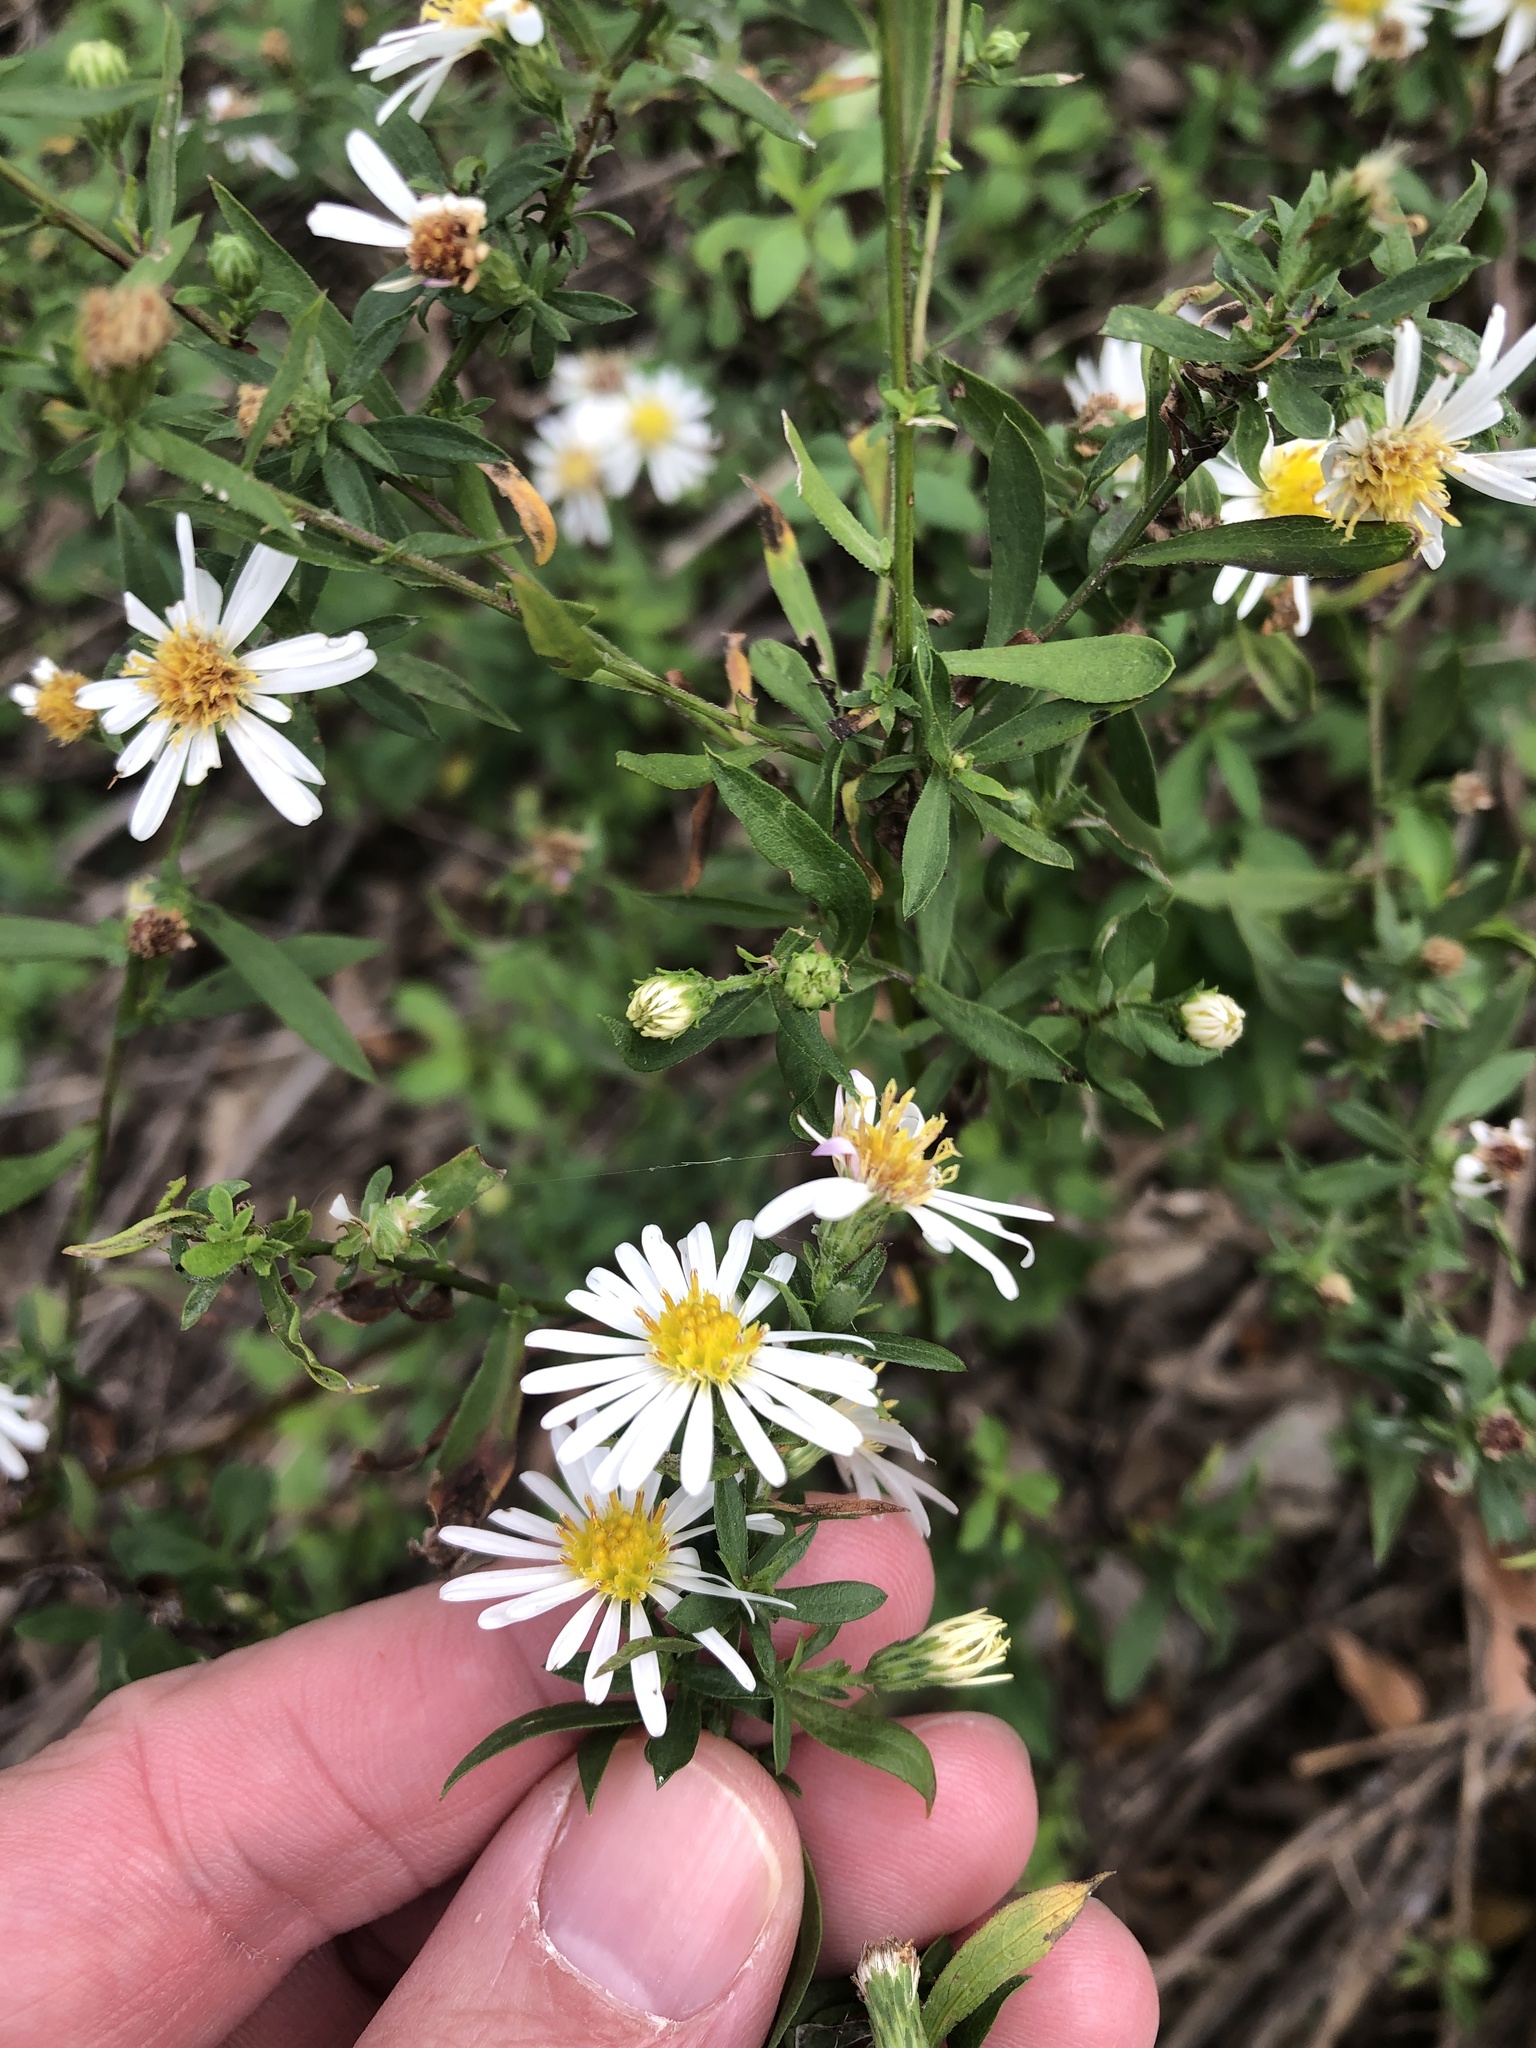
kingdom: Plantae
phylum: Tracheophyta
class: Magnoliopsida
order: Asterales
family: Asteraceae
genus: Symphyotrichum
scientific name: Symphyotrichum lanceolatum
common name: Panicled aster
